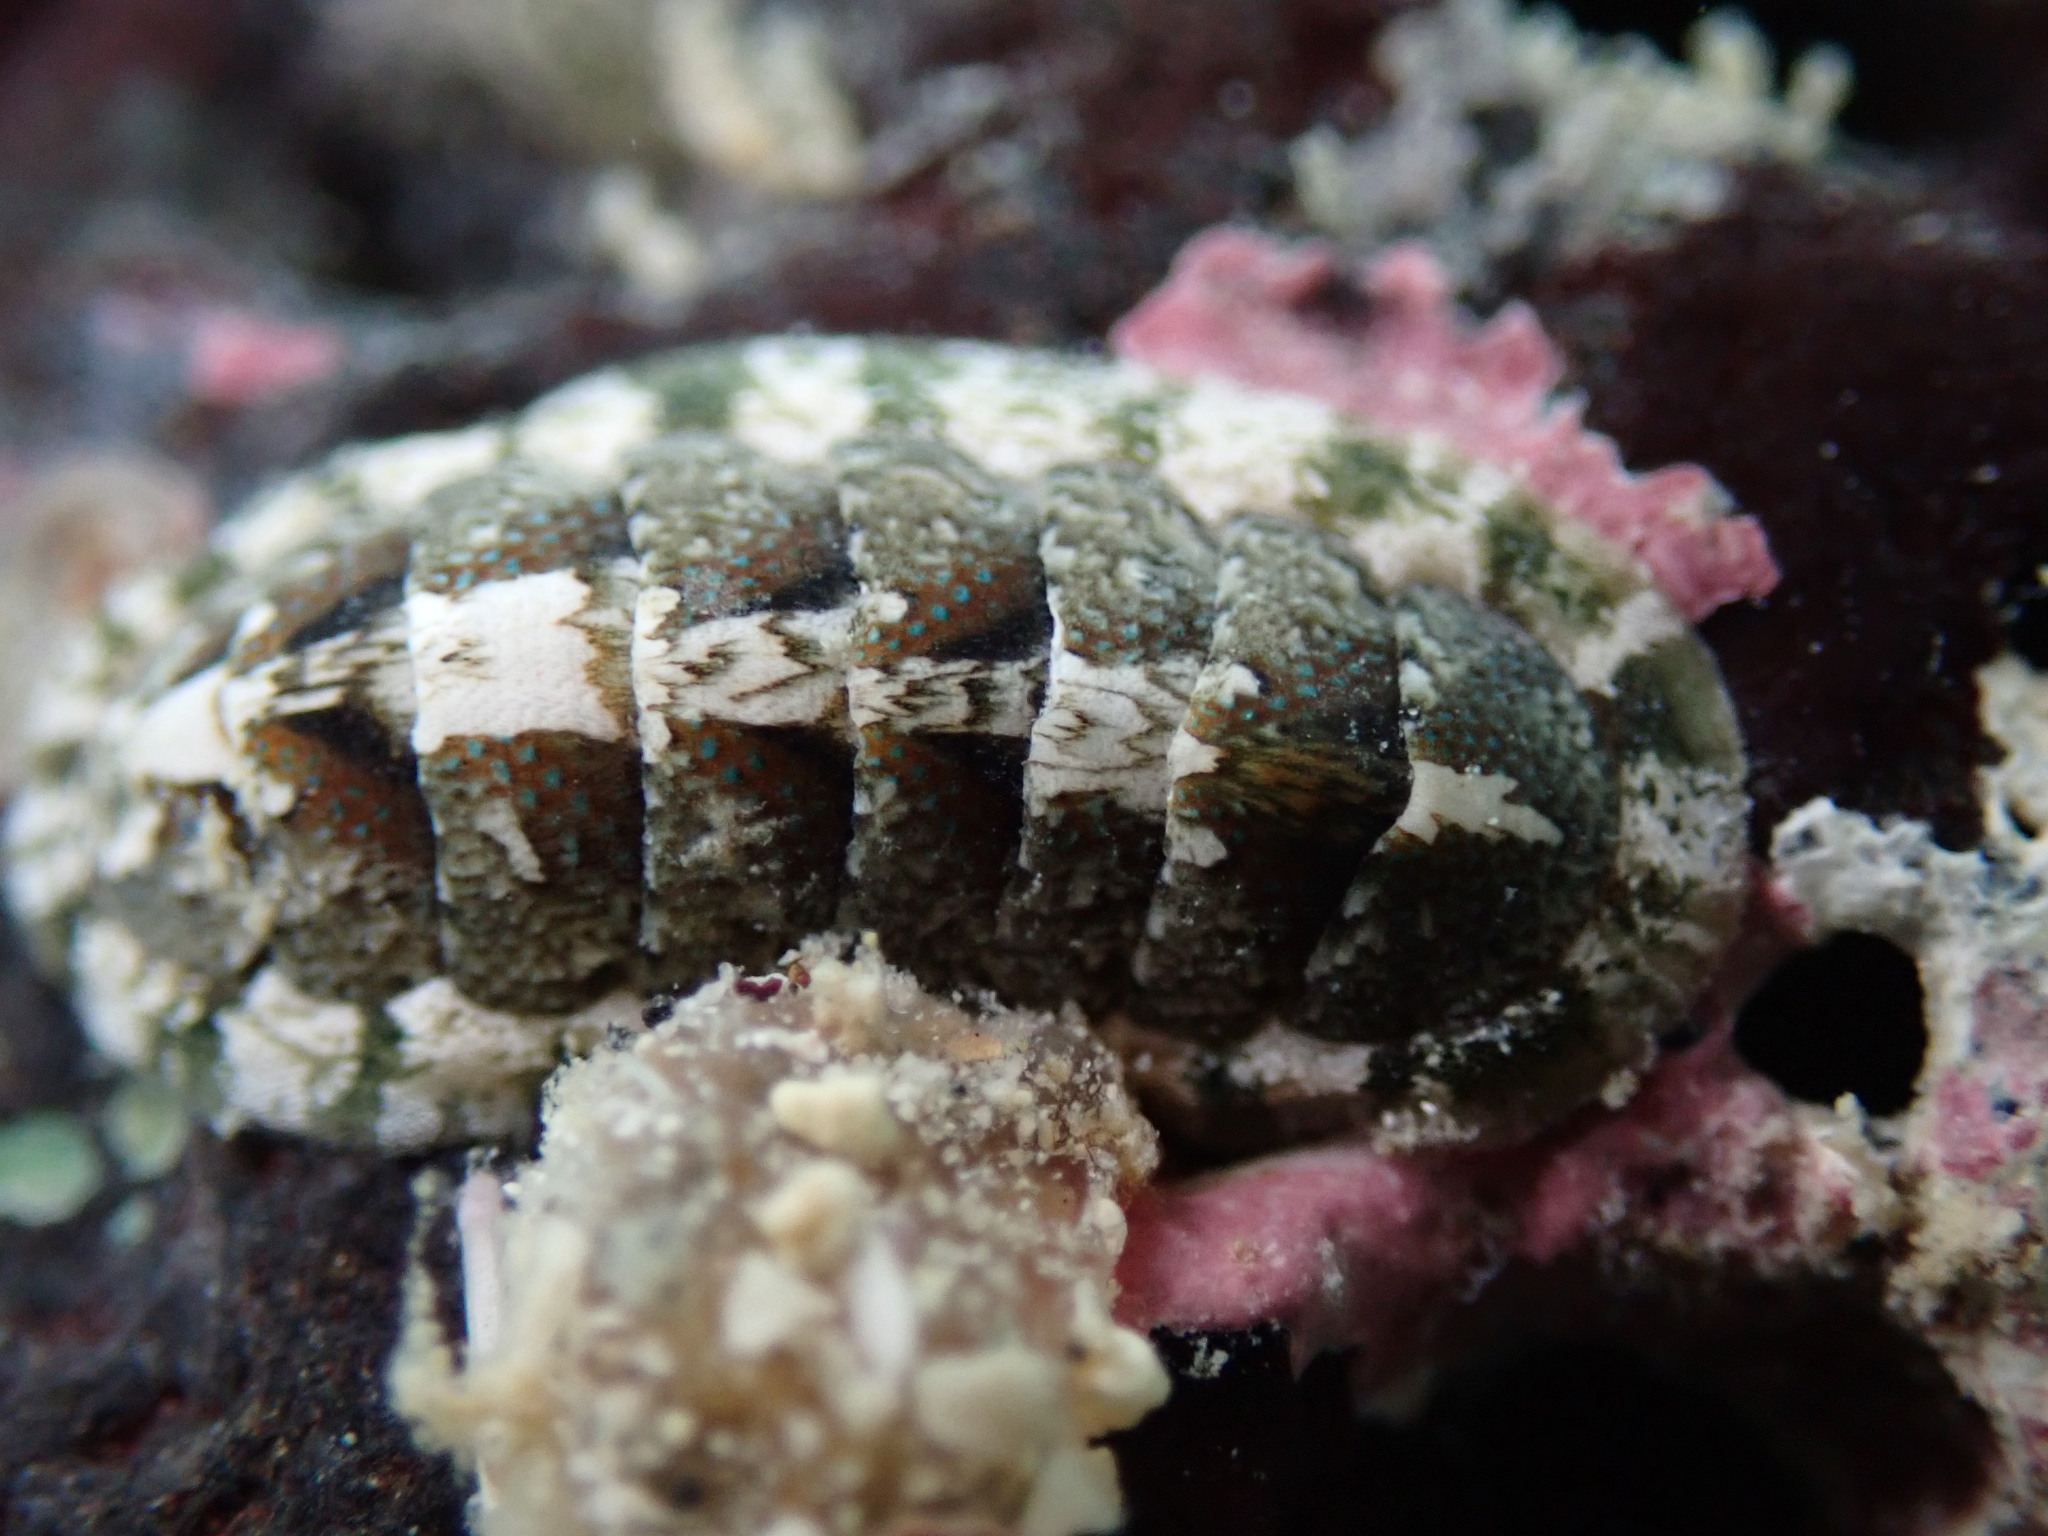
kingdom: Animalia
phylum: Mollusca
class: Polyplacophora
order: Chitonida
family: Ischnochitonidae
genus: Stenoplax
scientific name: Stenoplax petaloides
